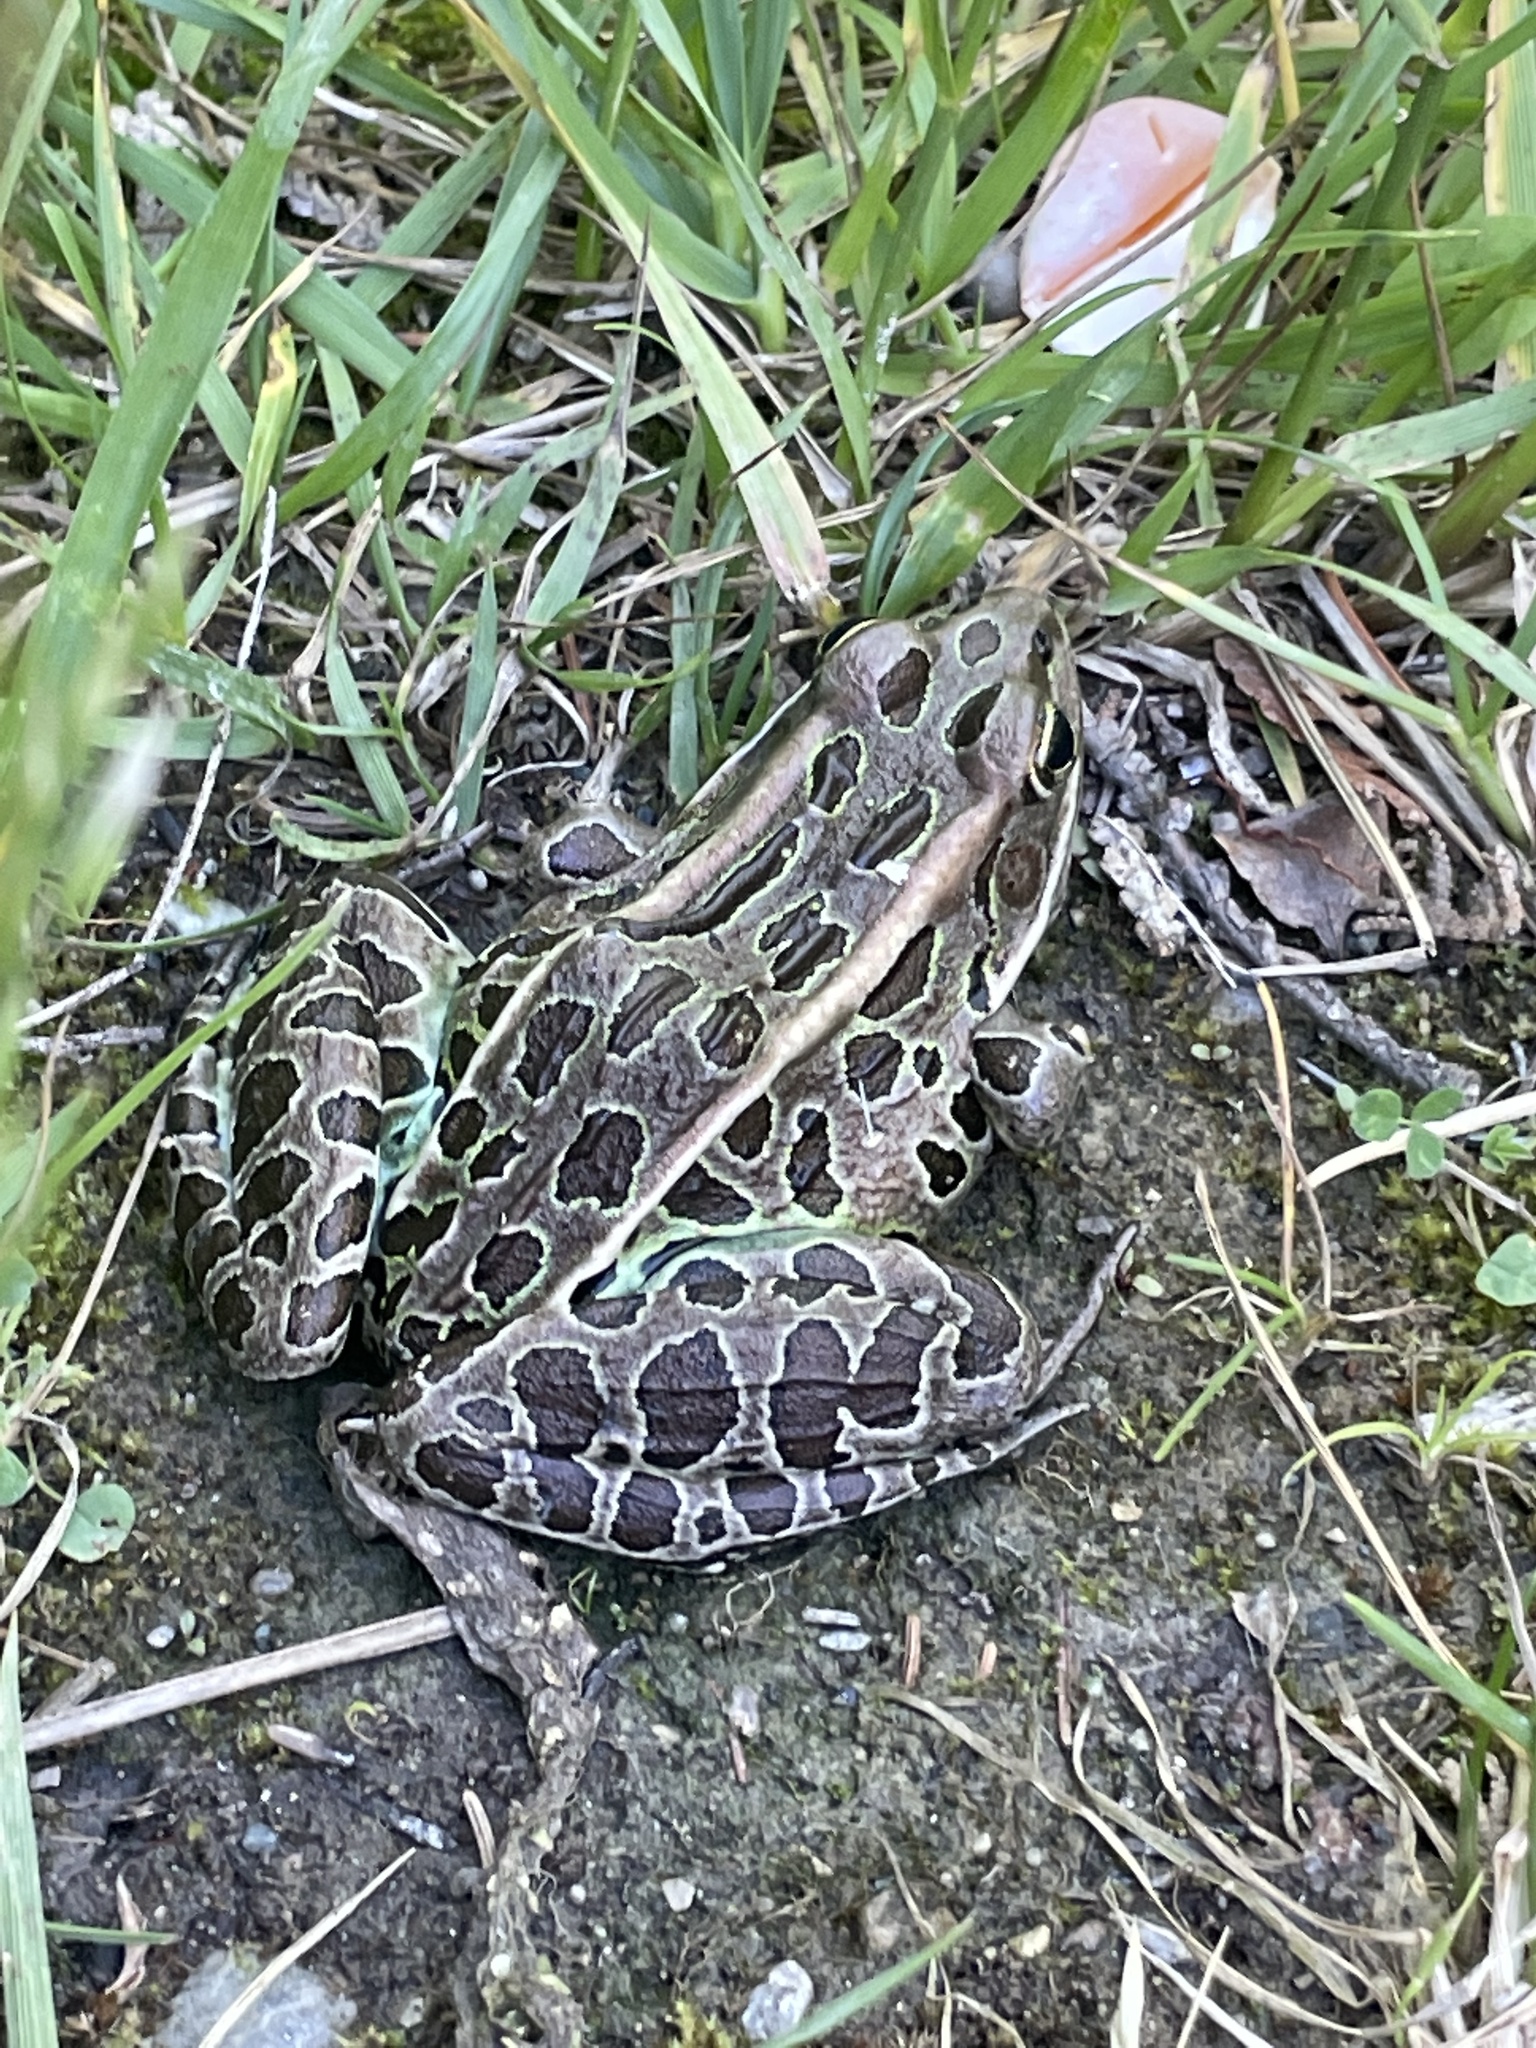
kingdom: Animalia
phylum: Chordata
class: Amphibia
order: Anura
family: Ranidae
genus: Lithobates
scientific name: Lithobates pipiens
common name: Northern leopard frog
